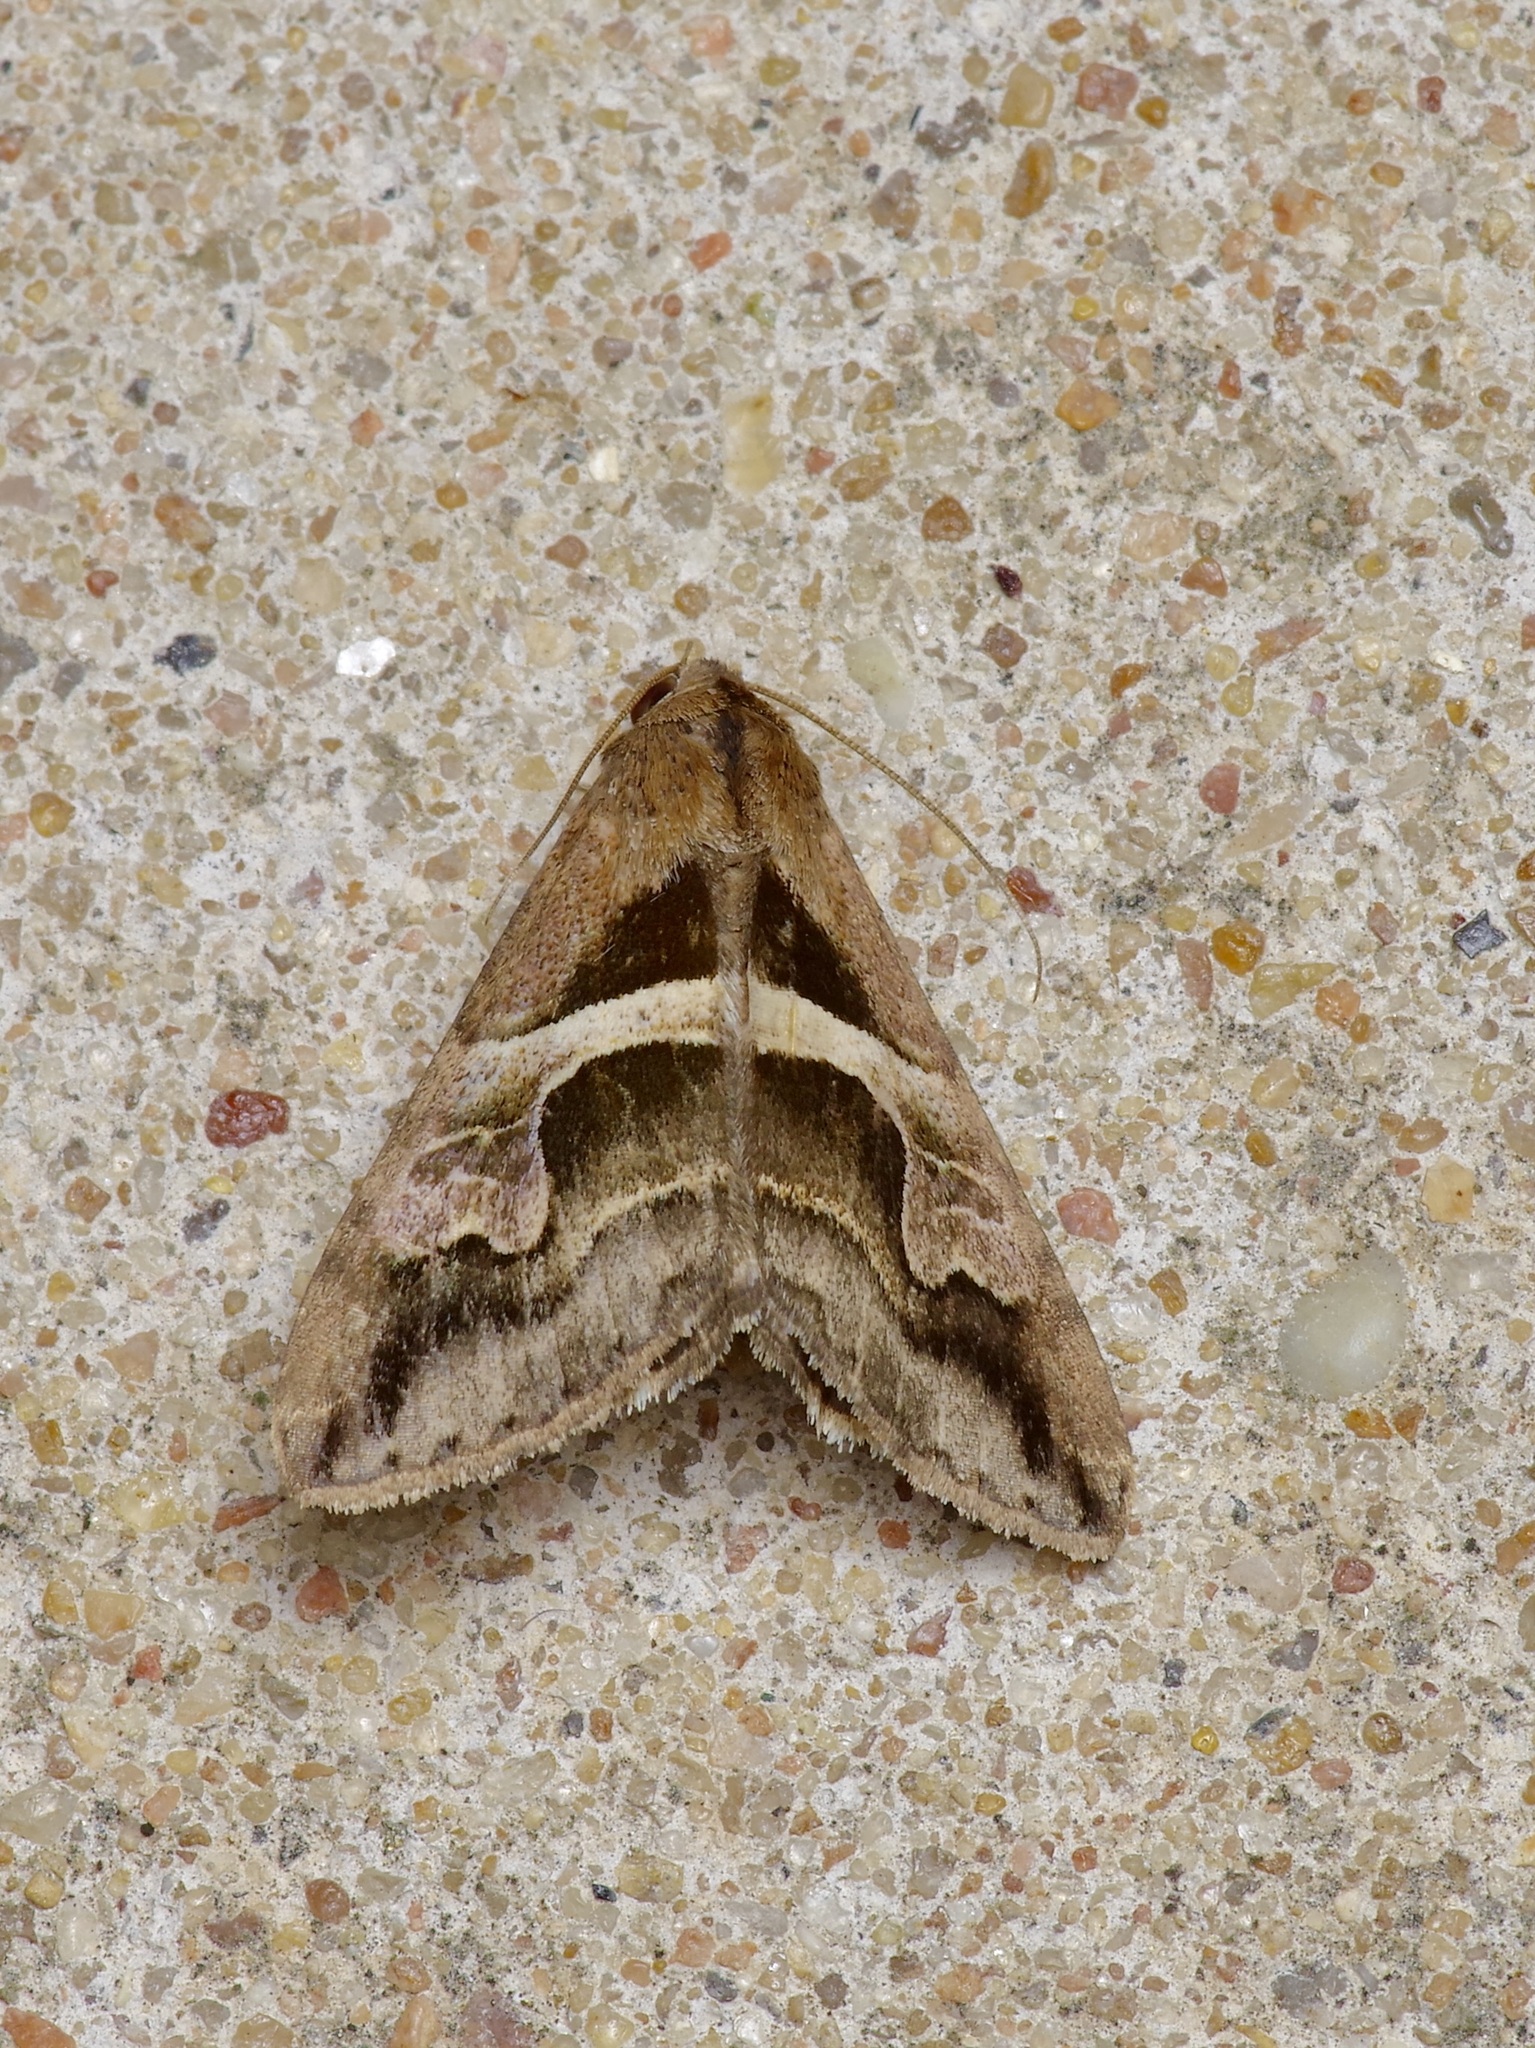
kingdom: Animalia
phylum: Arthropoda
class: Insecta
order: Lepidoptera
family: Erebidae
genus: Melipotis
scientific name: Melipotis cellaris
